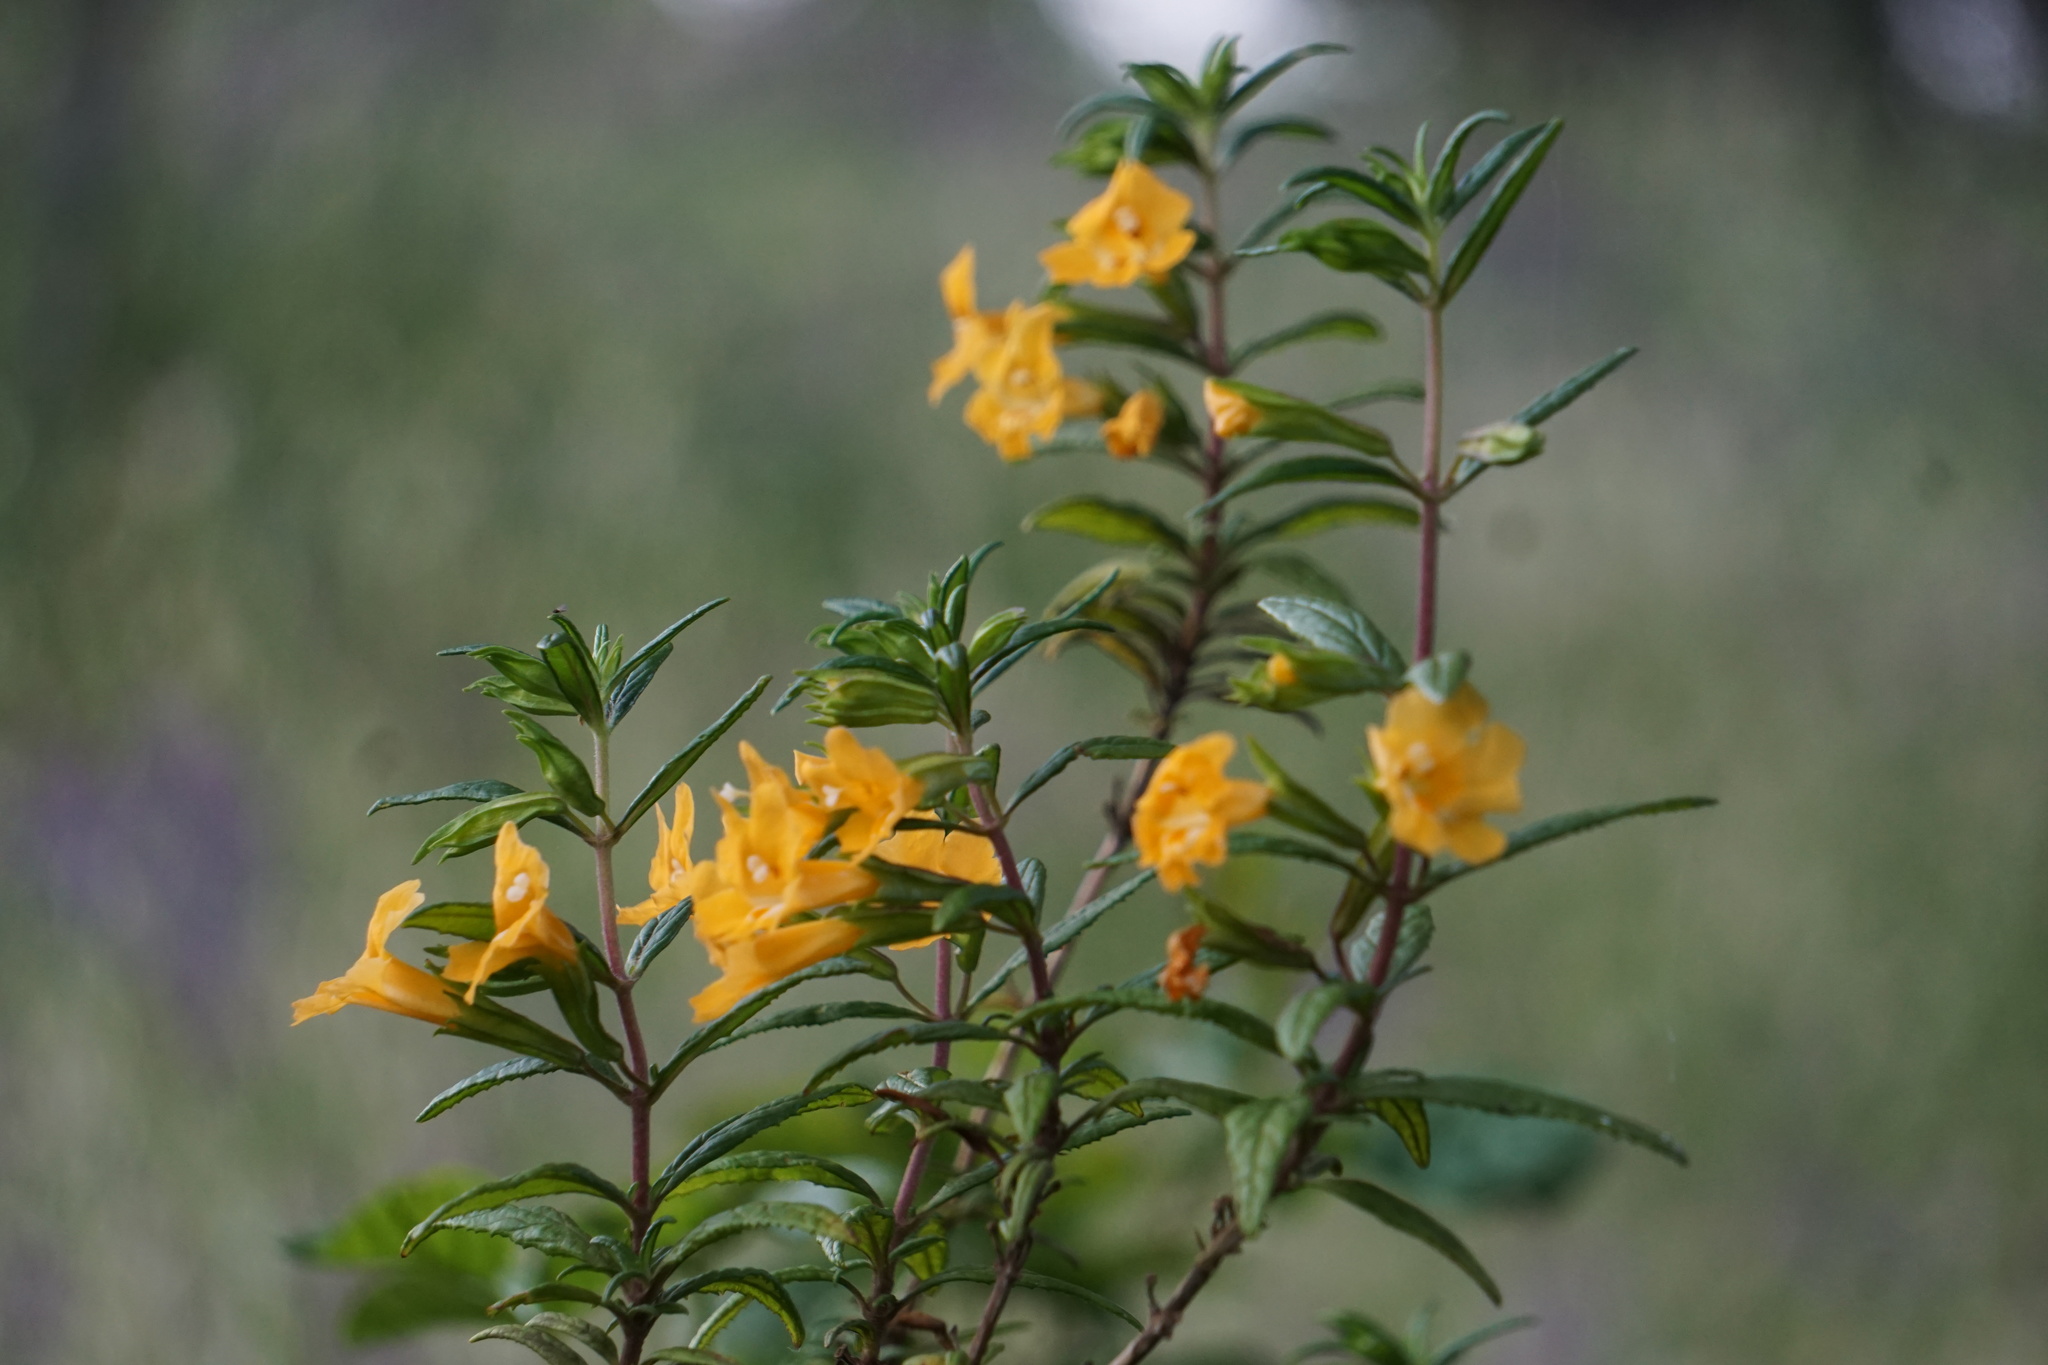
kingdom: Plantae
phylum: Tracheophyta
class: Magnoliopsida
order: Lamiales
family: Phrymaceae
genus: Diplacus
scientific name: Diplacus aurantiacus
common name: Bush monkey-flower
